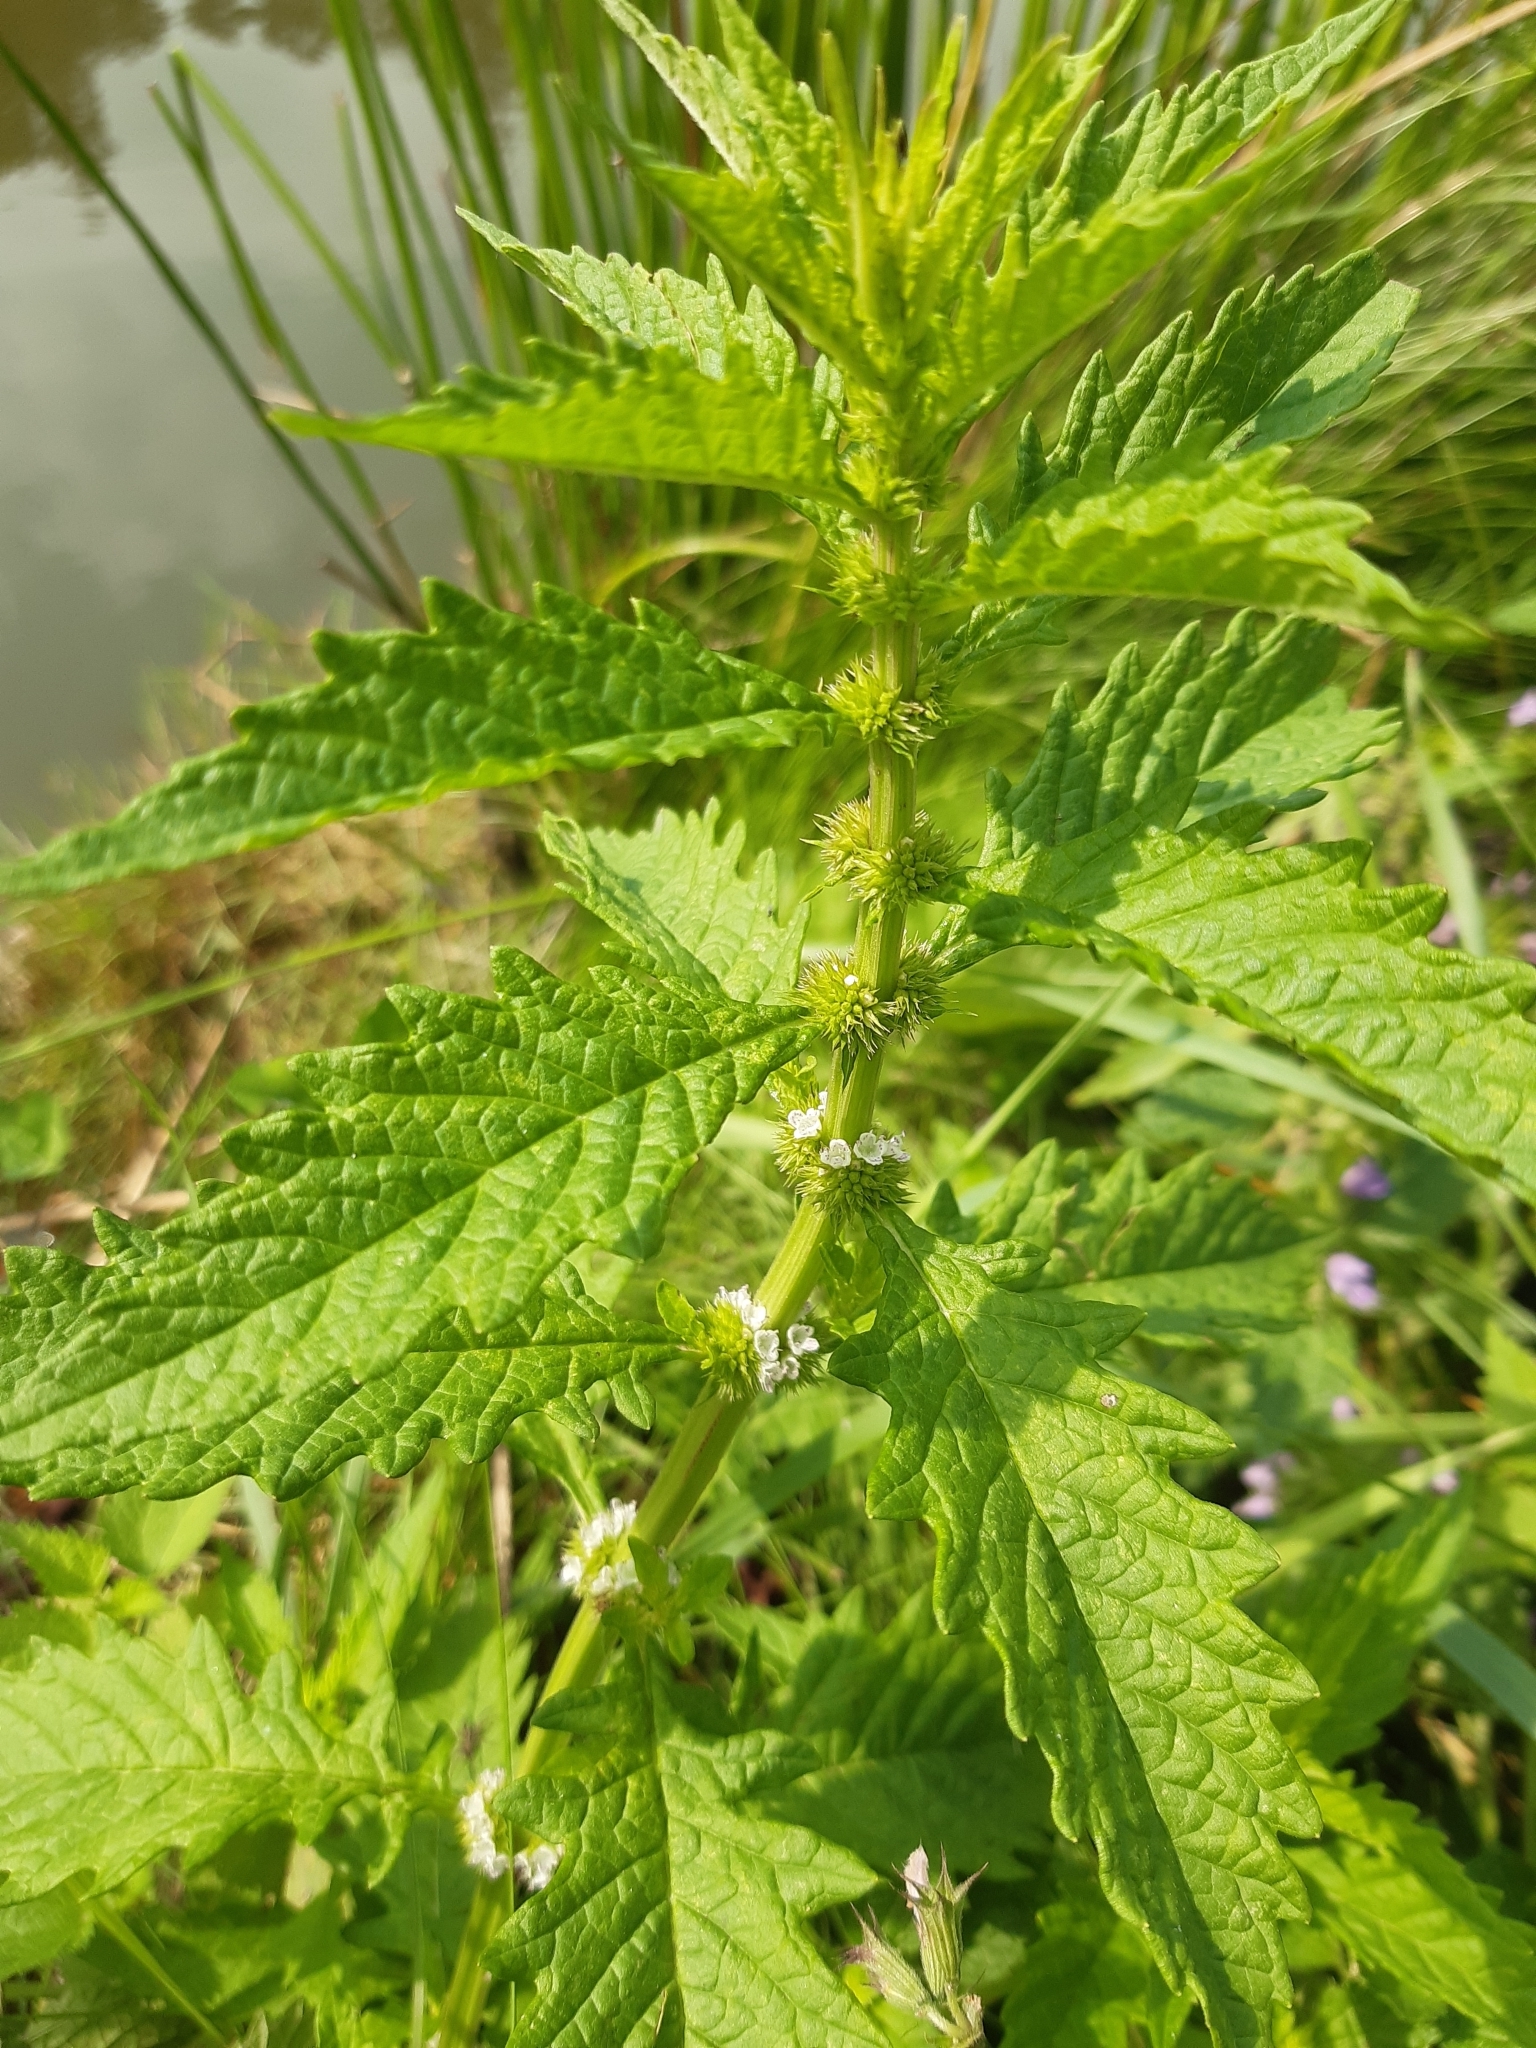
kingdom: Plantae
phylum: Tracheophyta
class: Magnoliopsida
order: Lamiales
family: Lamiaceae
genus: Lycopus
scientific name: Lycopus europaeus
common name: European bugleweed
